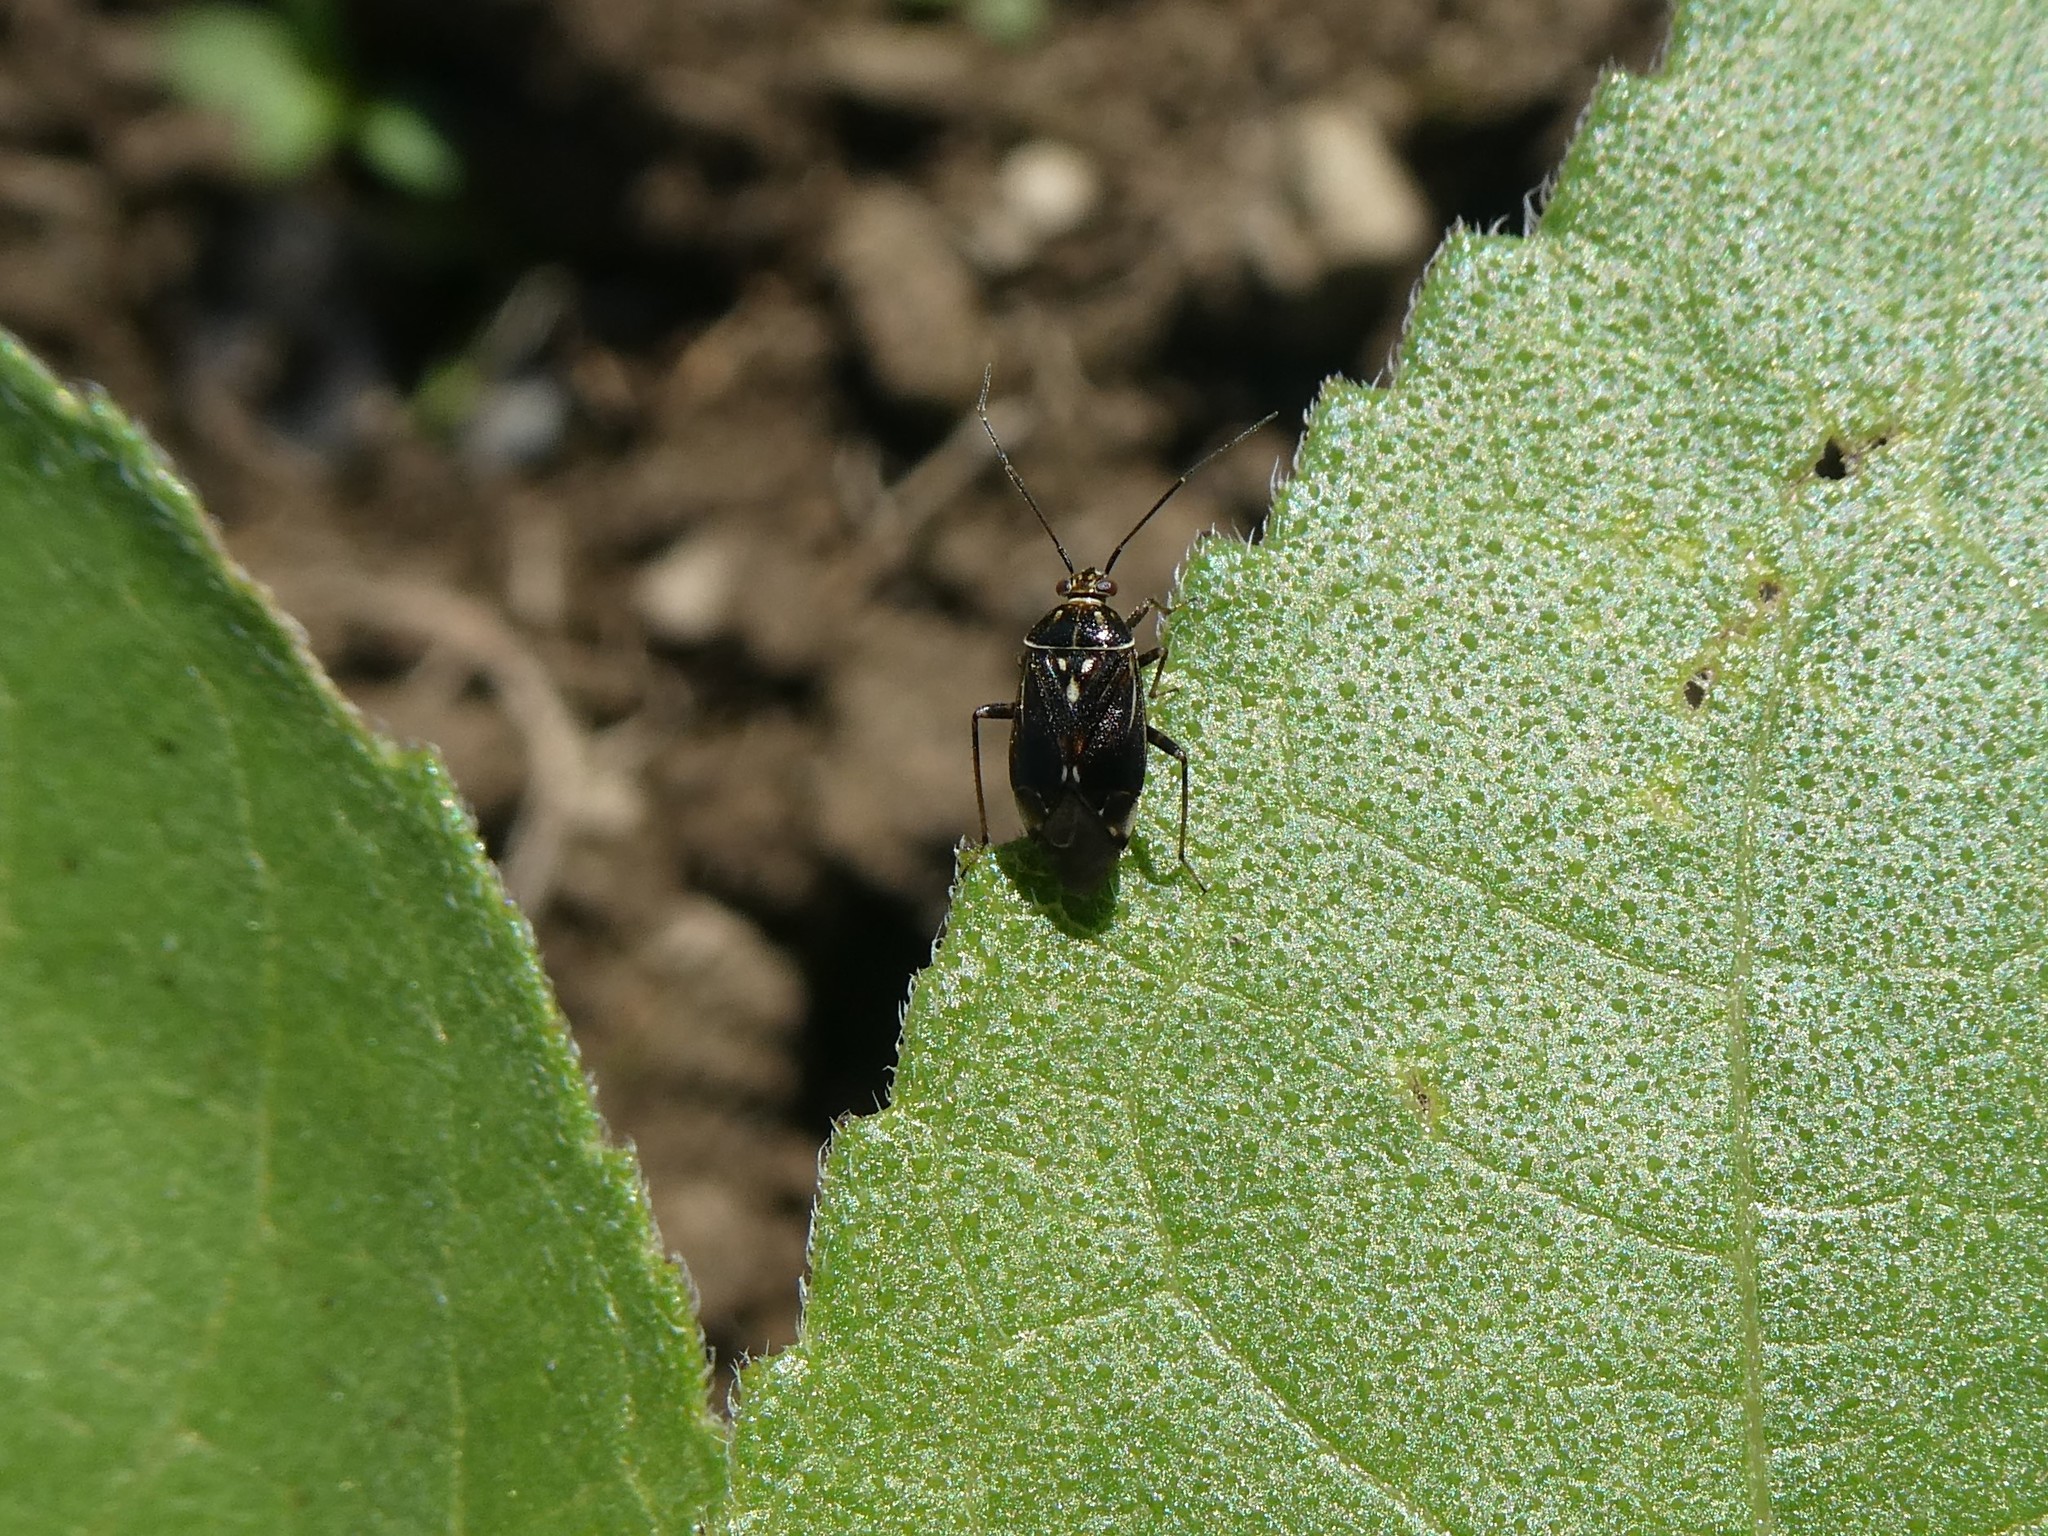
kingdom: Animalia
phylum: Arthropoda
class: Insecta
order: Hemiptera
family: Miridae
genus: Lygus
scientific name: Lygus lineolaris
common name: North american tarnished plant bug
